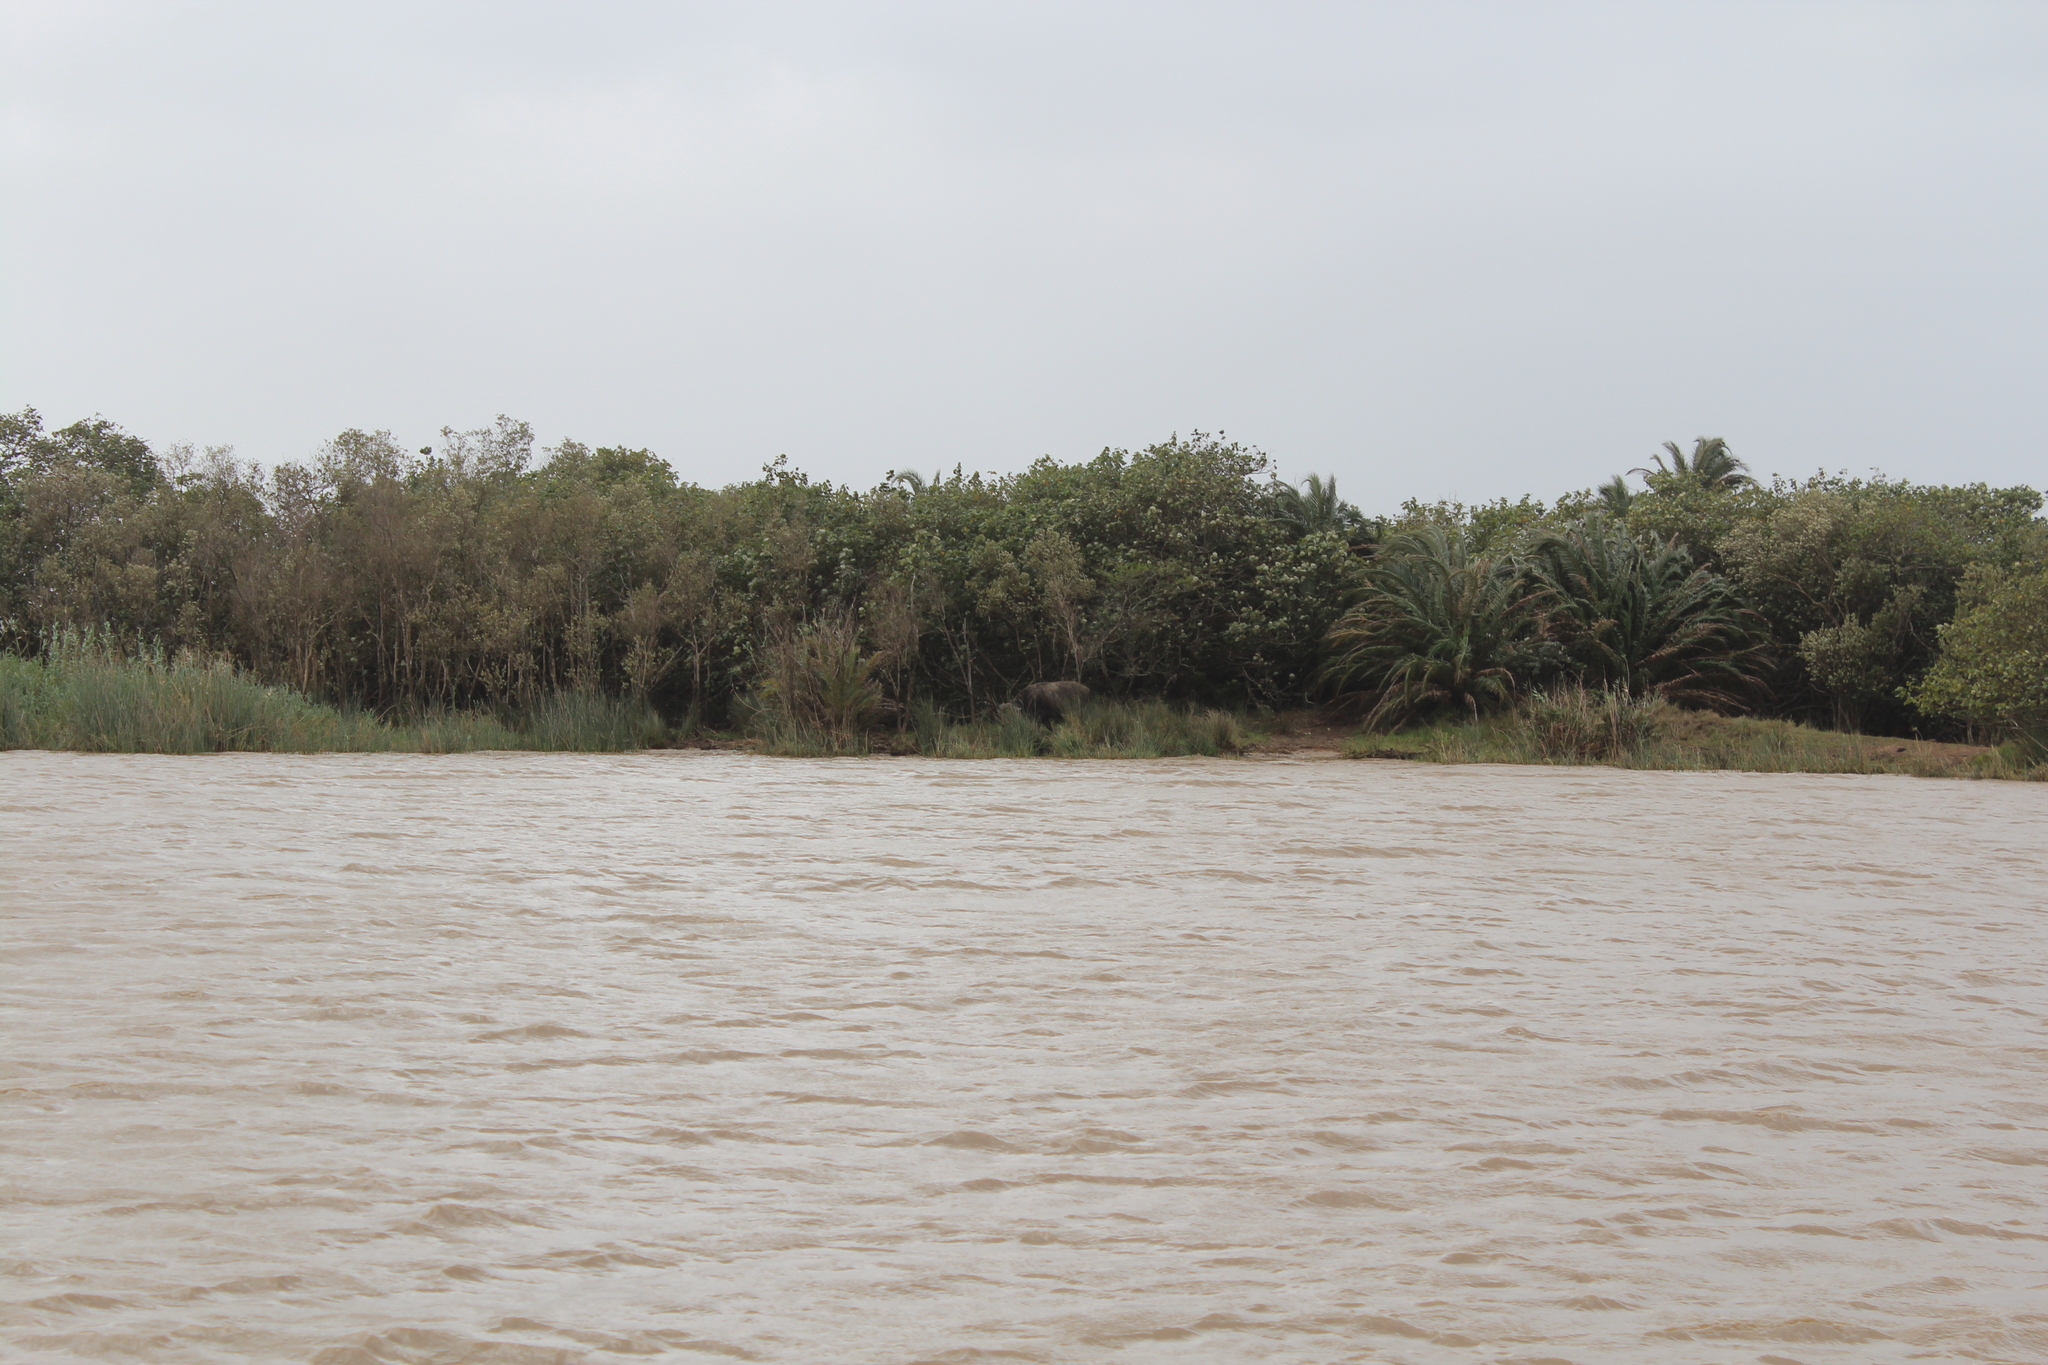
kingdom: Animalia
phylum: Chordata
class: Aves
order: Accipitriformes
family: Accipitridae
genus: Haliaeetus
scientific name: Haliaeetus vocifer
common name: African fish eagle
